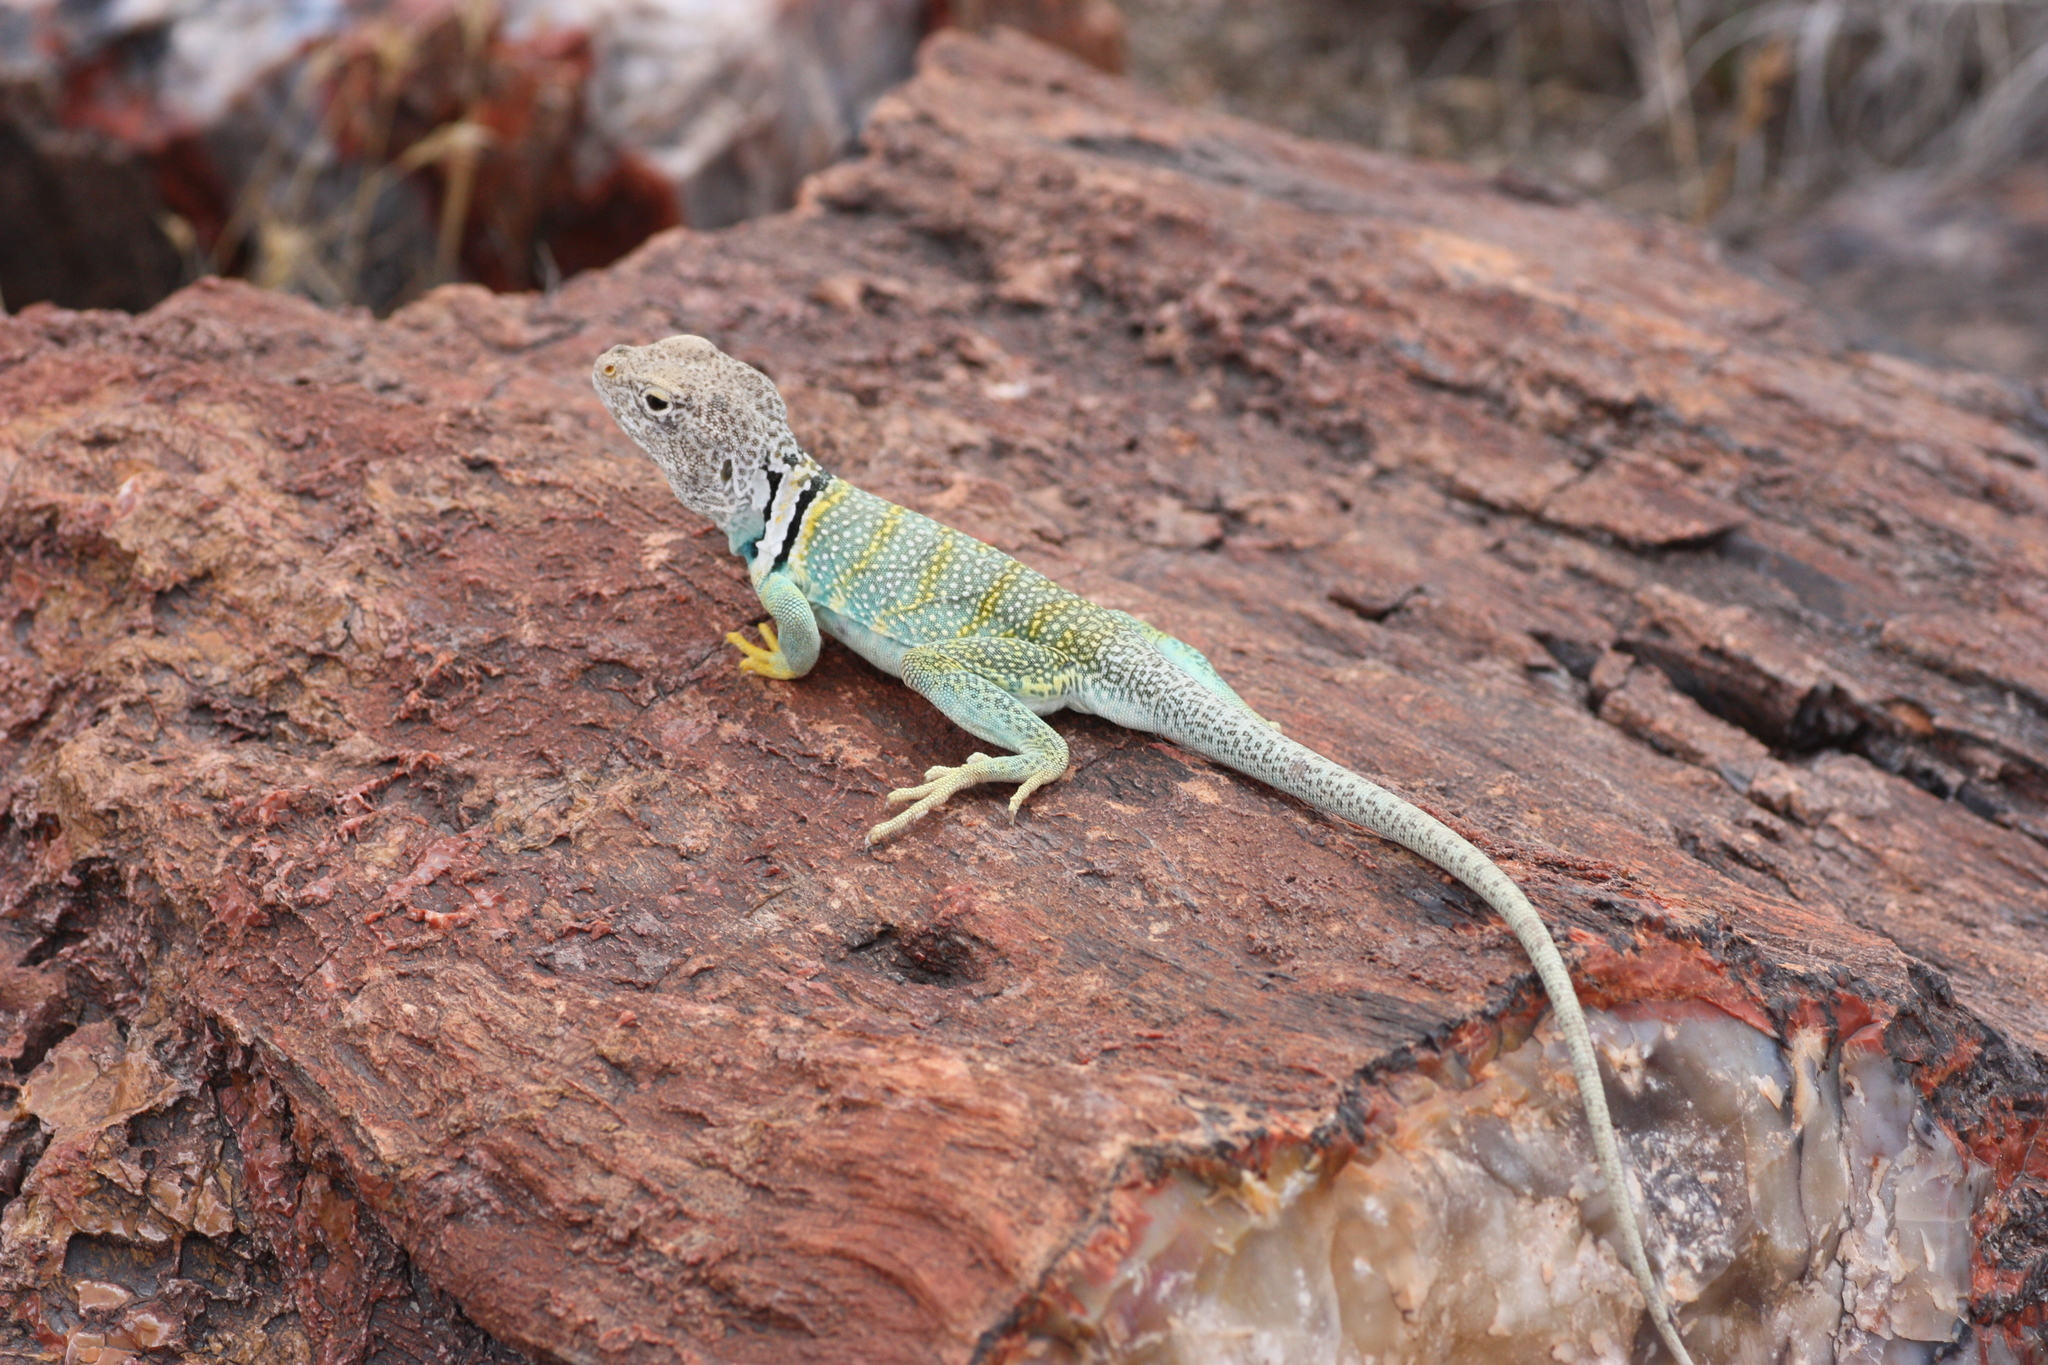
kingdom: Animalia
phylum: Chordata
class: Squamata
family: Crotaphytidae
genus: Crotaphytus
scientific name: Crotaphytus collaris
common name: Collared lizard
